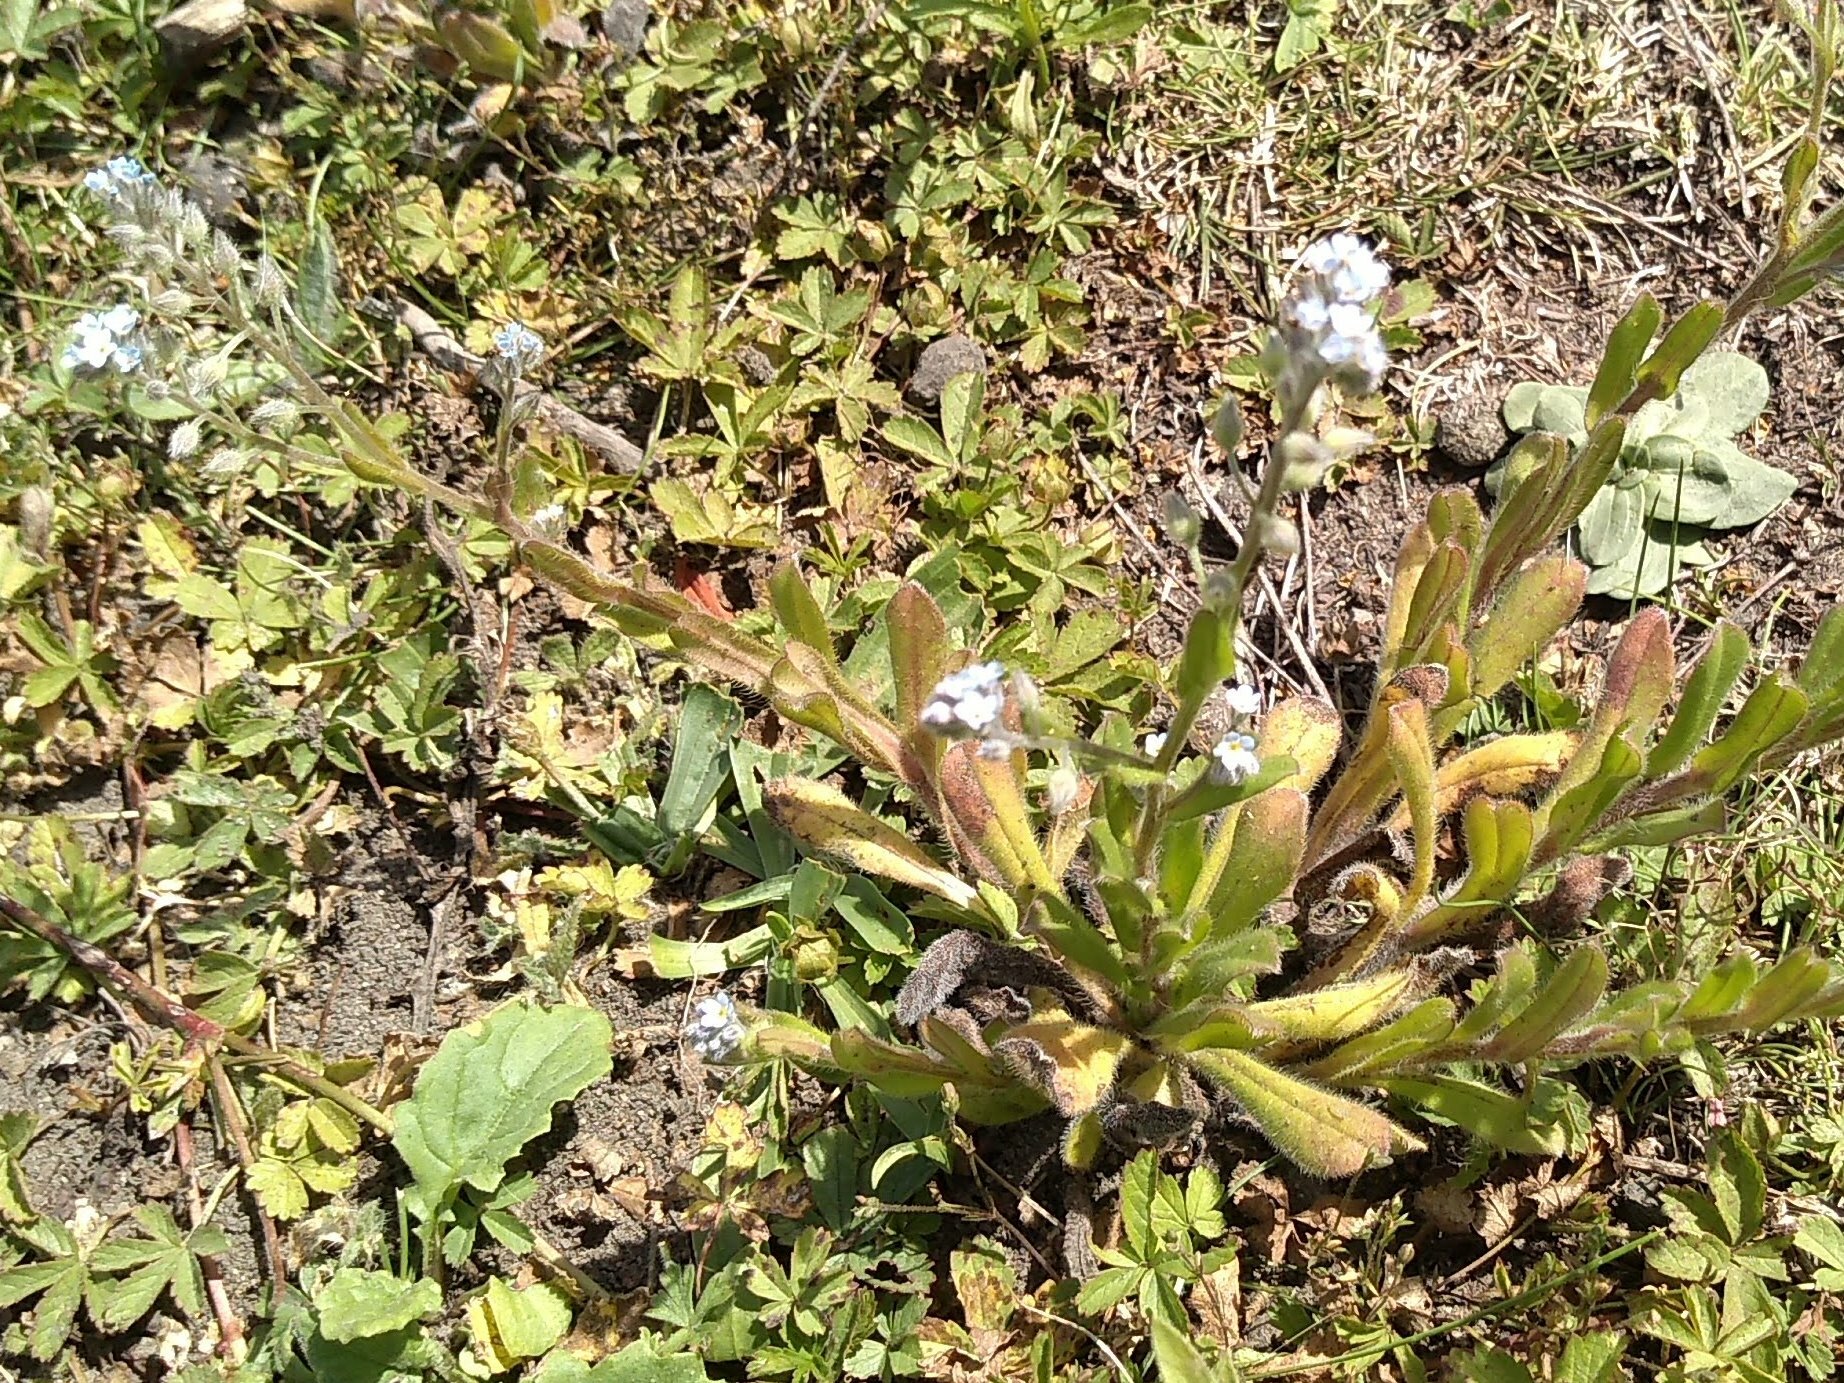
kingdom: Plantae
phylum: Tracheophyta
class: Magnoliopsida
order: Boraginales
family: Boraginaceae
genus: Myosotis
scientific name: Myosotis arvensis
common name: Field forget-me-not
